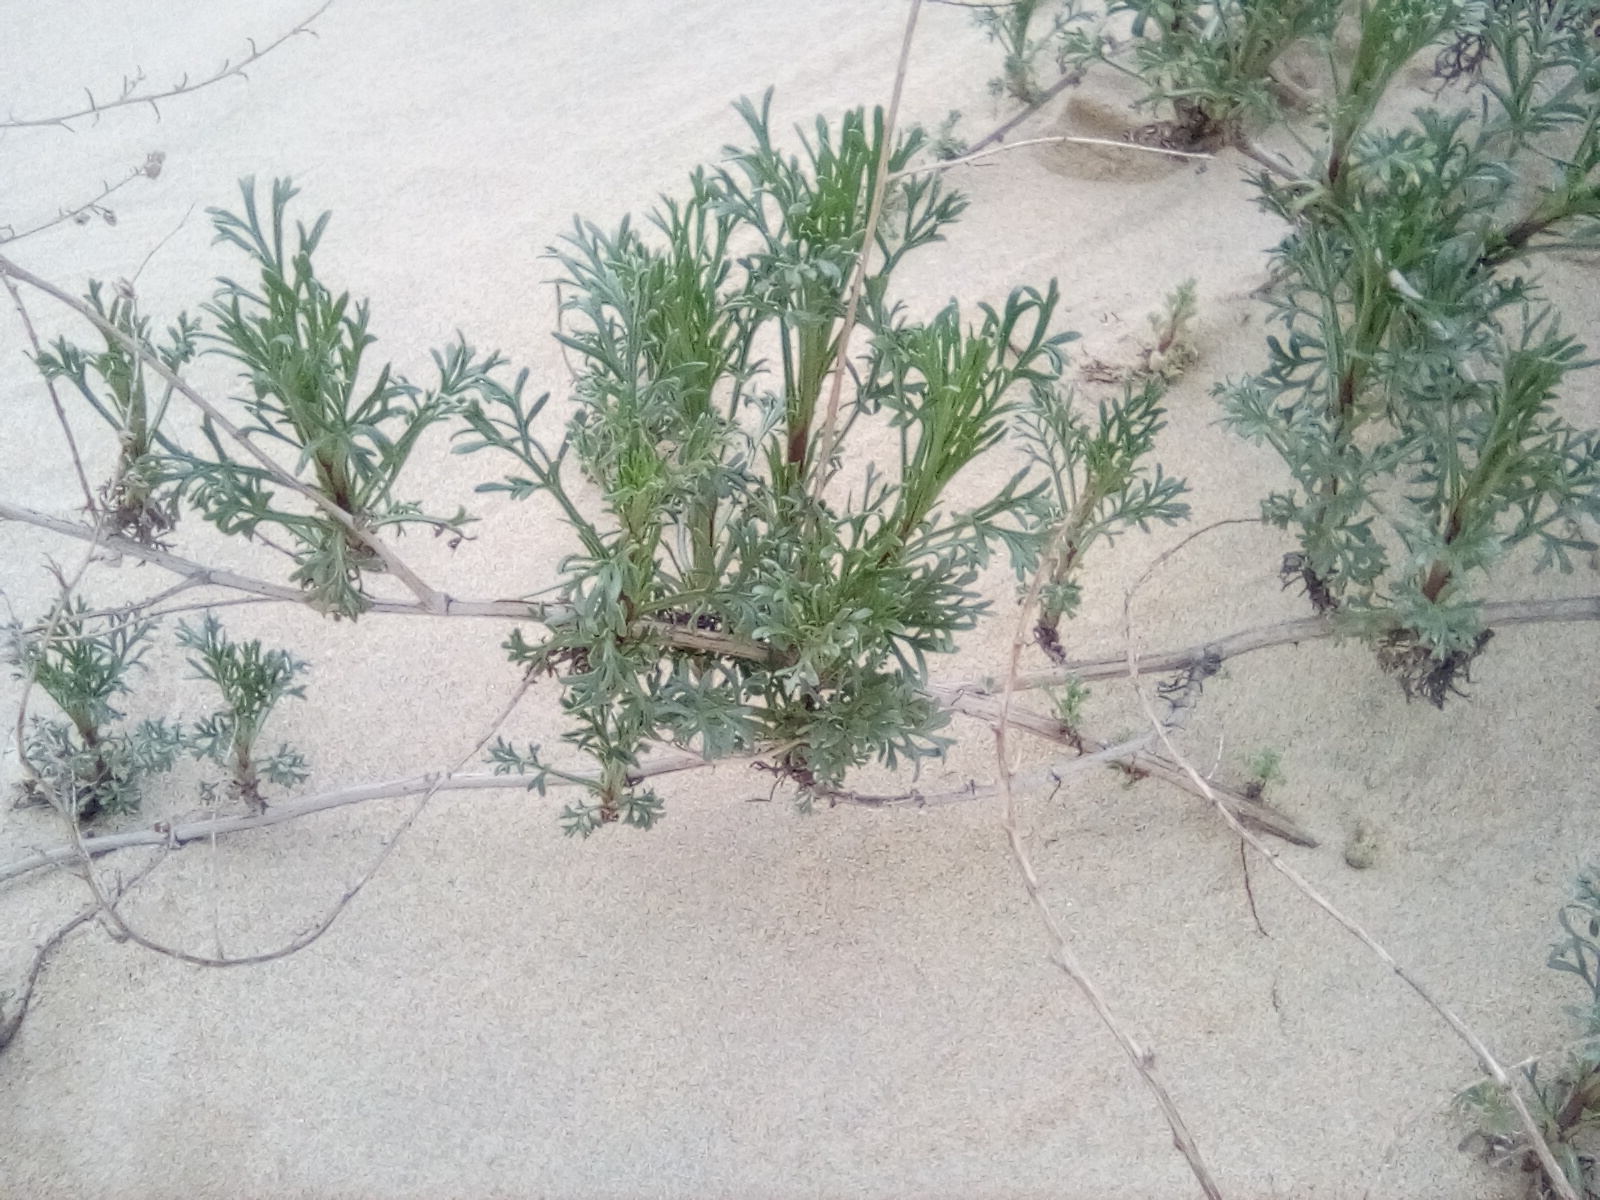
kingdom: Plantae
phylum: Tracheophyta
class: Magnoliopsida
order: Asterales
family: Asteraceae
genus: Artemisia
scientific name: Artemisia arenaria
